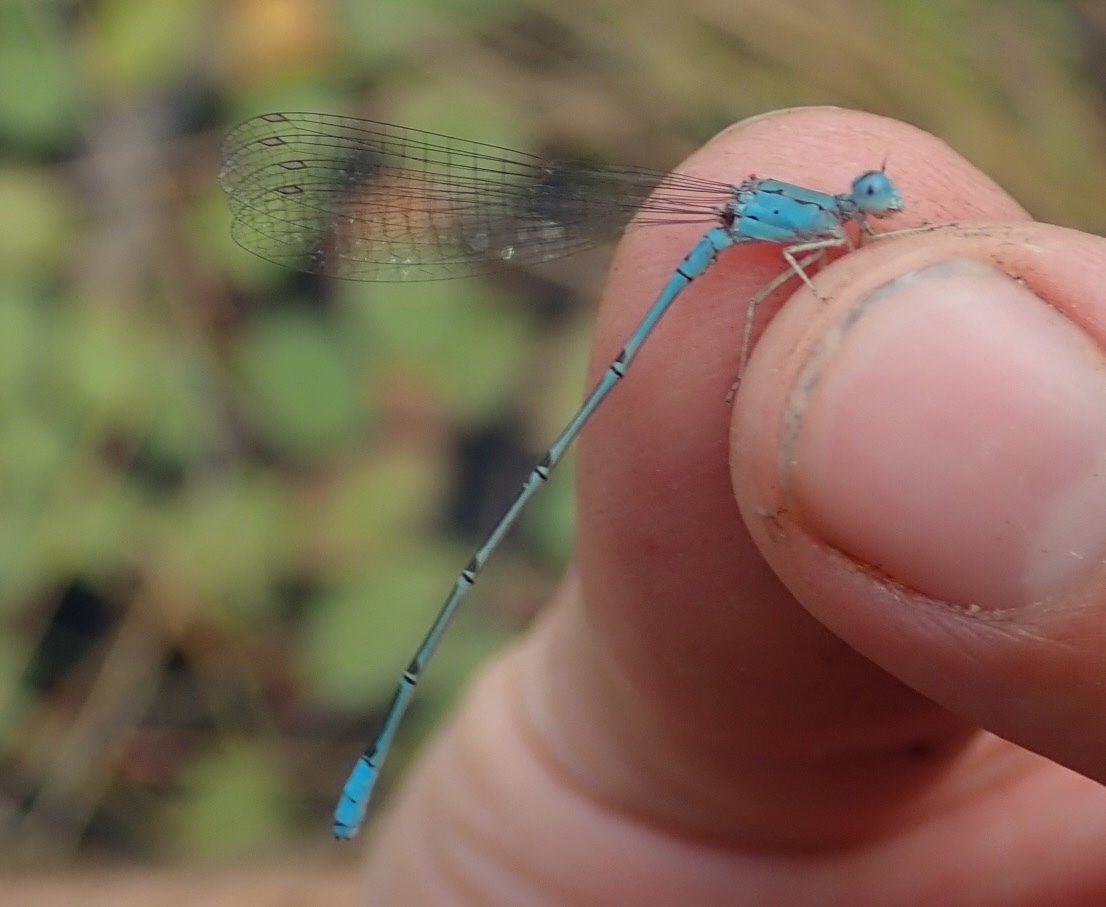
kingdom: Animalia
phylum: Arthropoda
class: Insecta
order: Odonata
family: Coenagrionidae
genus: Pseudagrion
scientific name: Pseudagrion helenae
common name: Helen's sprite
